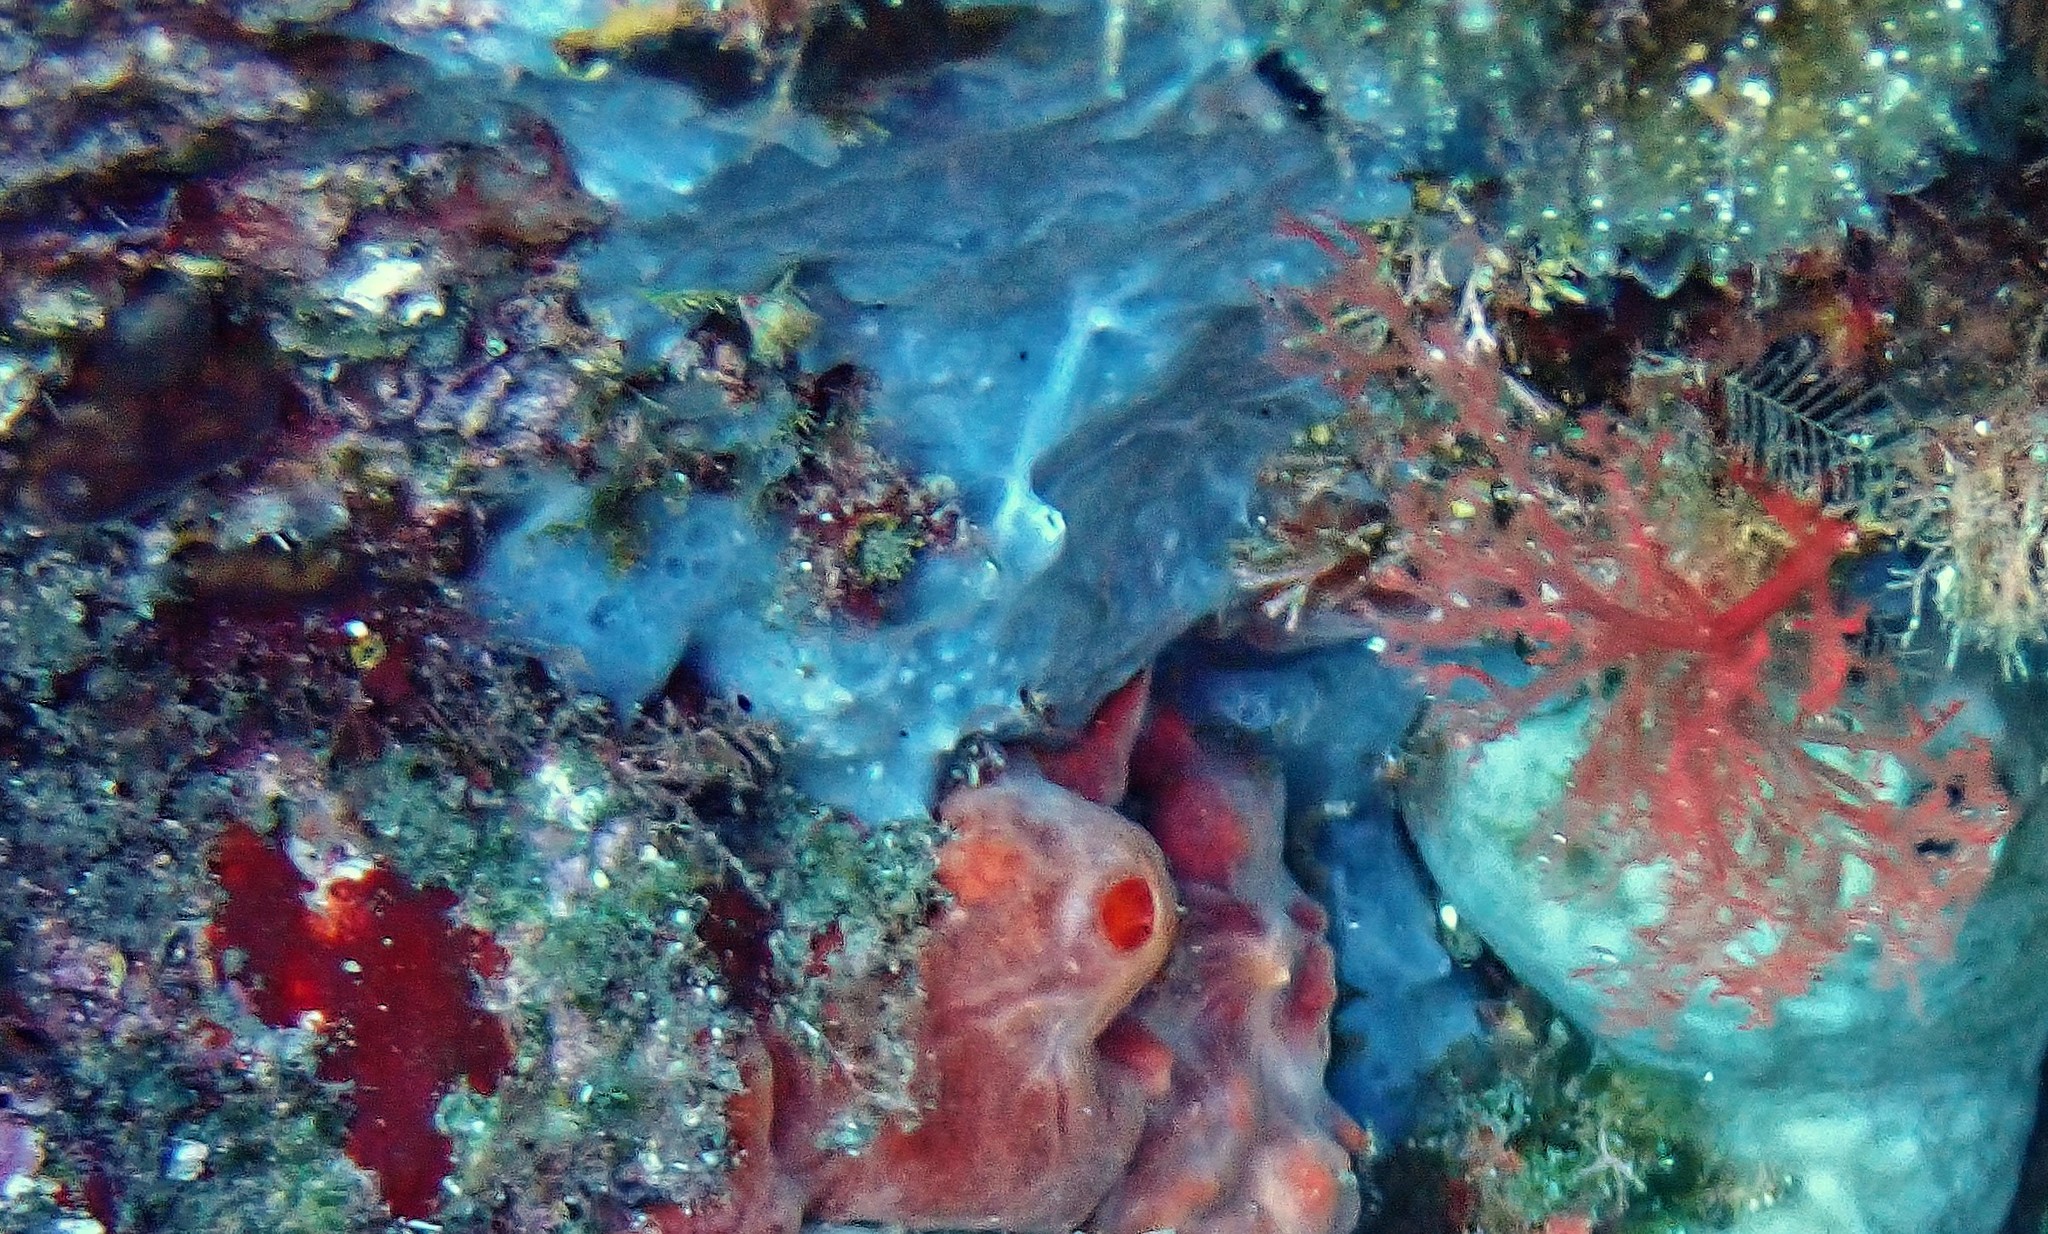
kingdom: Animalia
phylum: Porifera
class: Demospongiae
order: Poecilosclerida
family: Hymedesmiidae
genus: Phorbas
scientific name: Phorbas tenacior
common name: Bluish encrusting sponge
